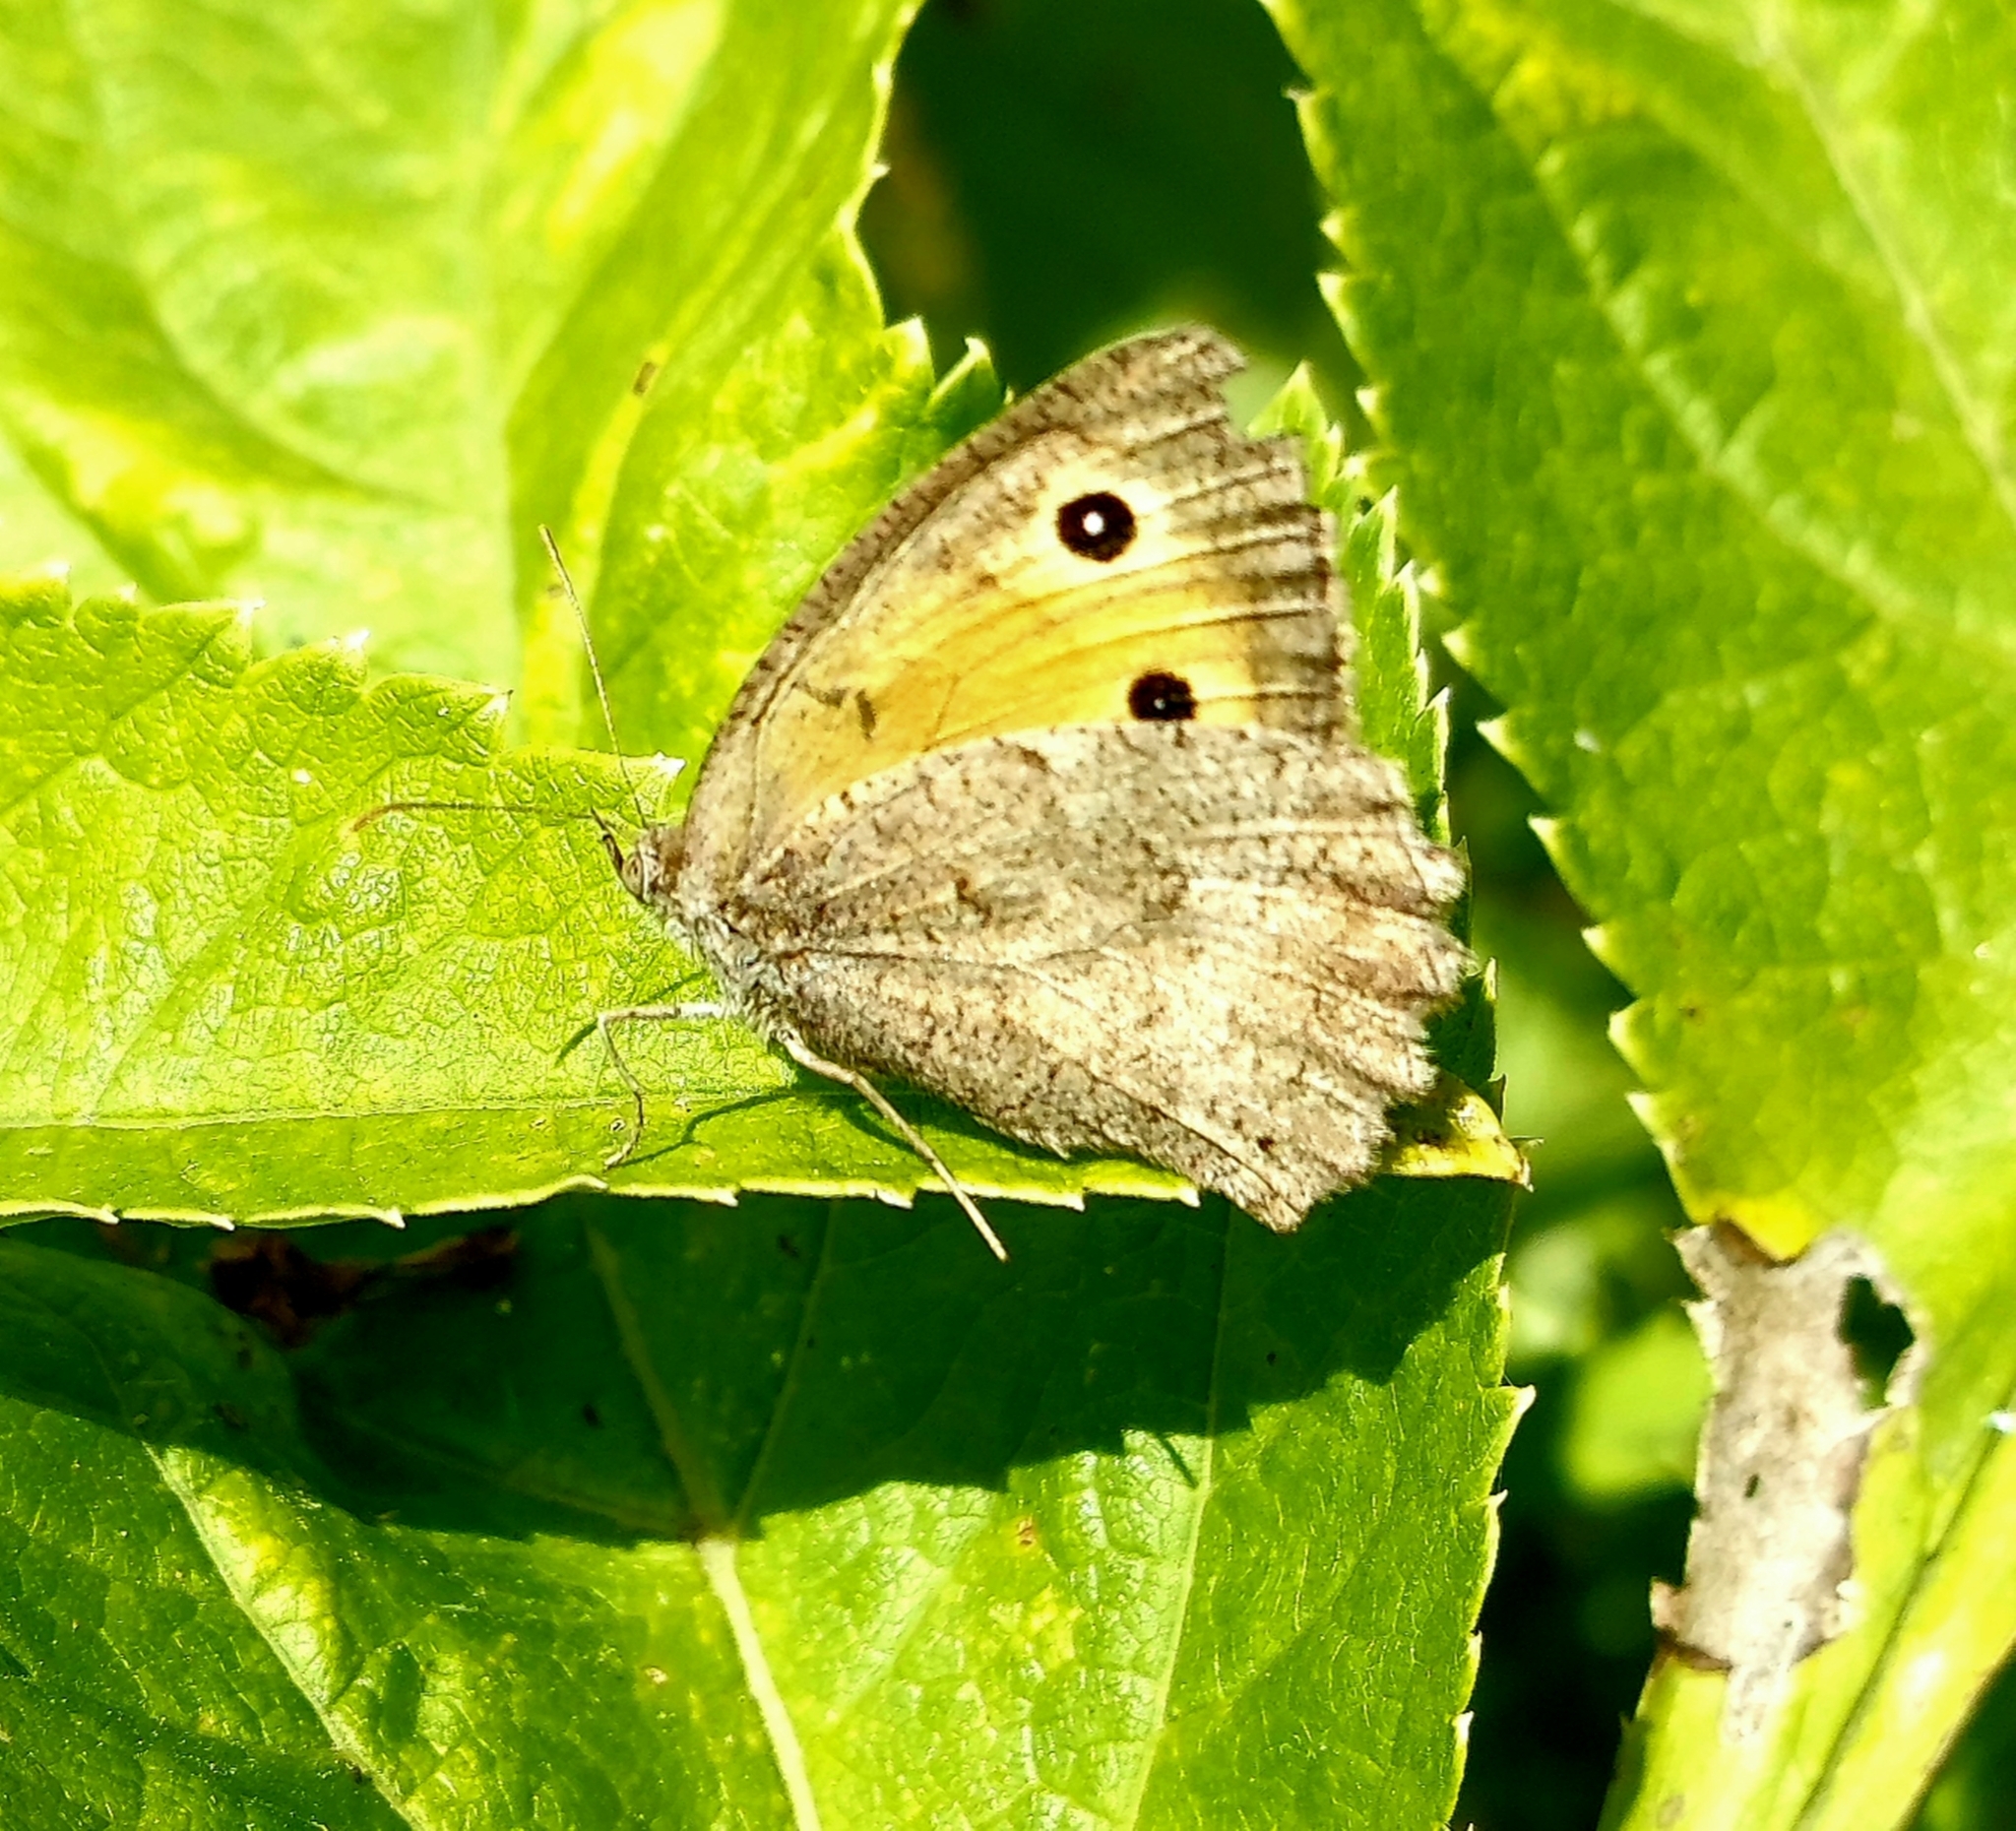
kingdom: Animalia
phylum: Arthropoda
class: Insecta
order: Lepidoptera
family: Nymphalidae
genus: Hyponephele
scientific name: Hyponephele lycaon
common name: Dusky meadow brown
